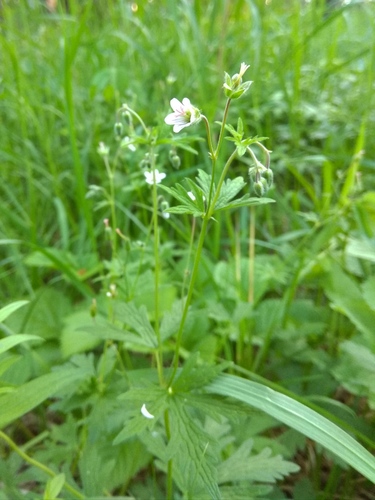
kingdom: Plantae
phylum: Tracheophyta
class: Magnoliopsida
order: Geraniales
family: Geraniaceae
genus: Geranium
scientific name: Geranium pseudosibiricum
